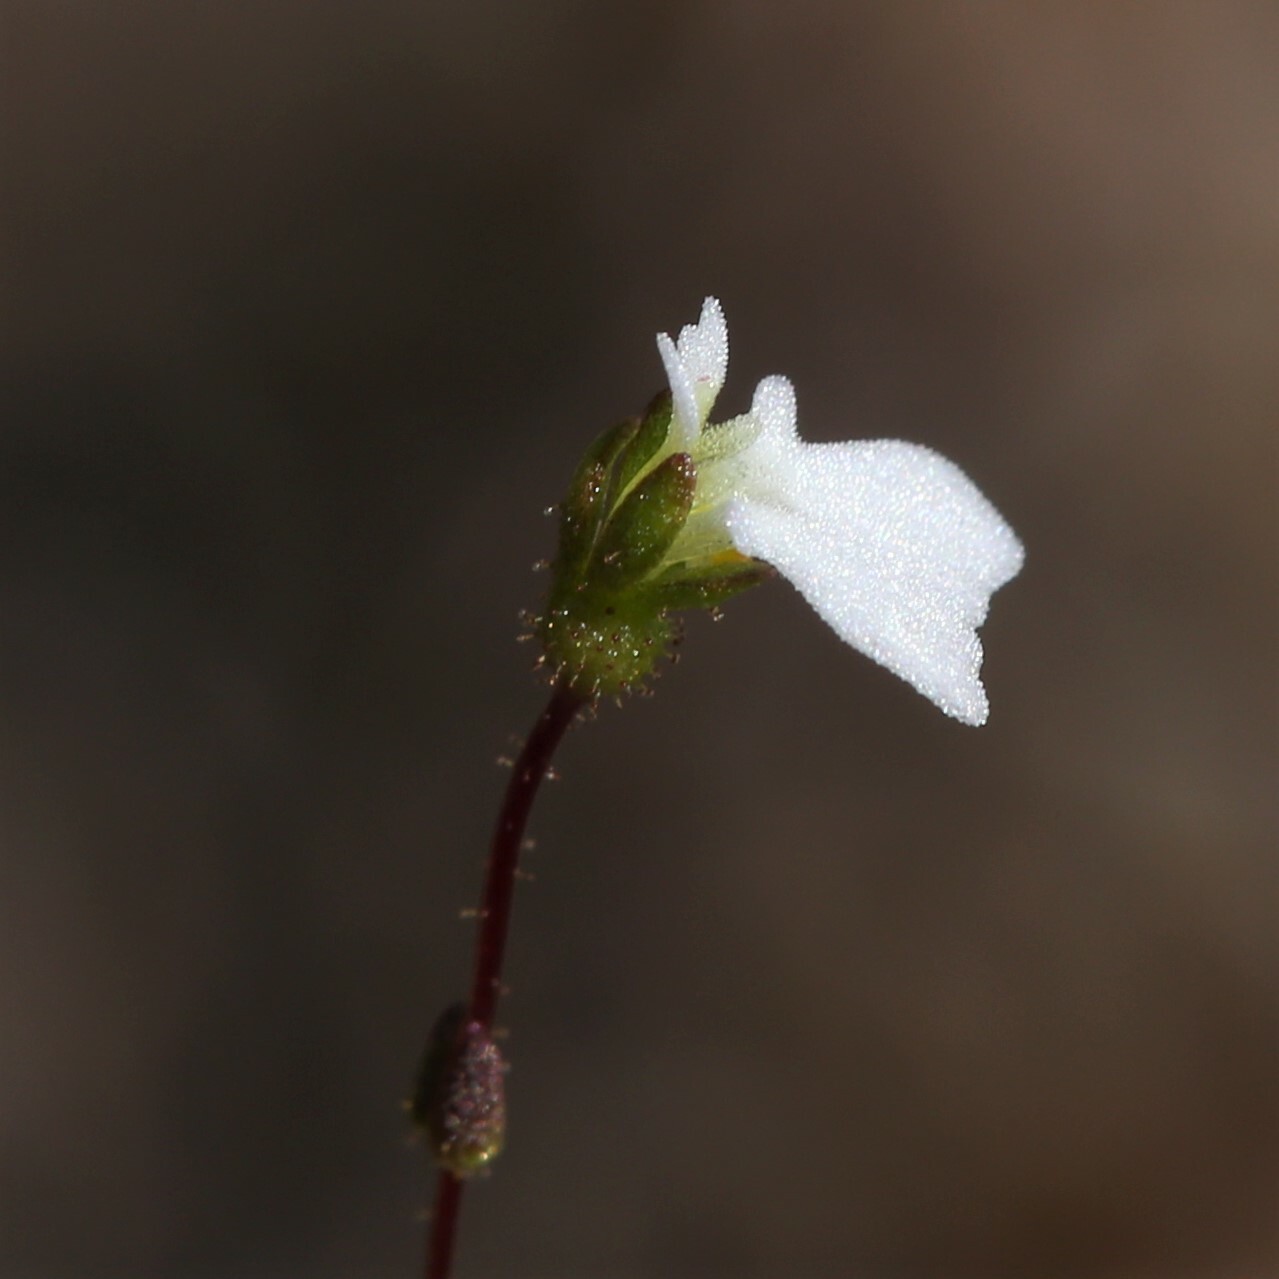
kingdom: Plantae
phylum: Tracheophyta
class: Magnoliopsida
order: Asterales
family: Stylidiaceae
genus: Stylidium
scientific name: Stylidium perpusillum
